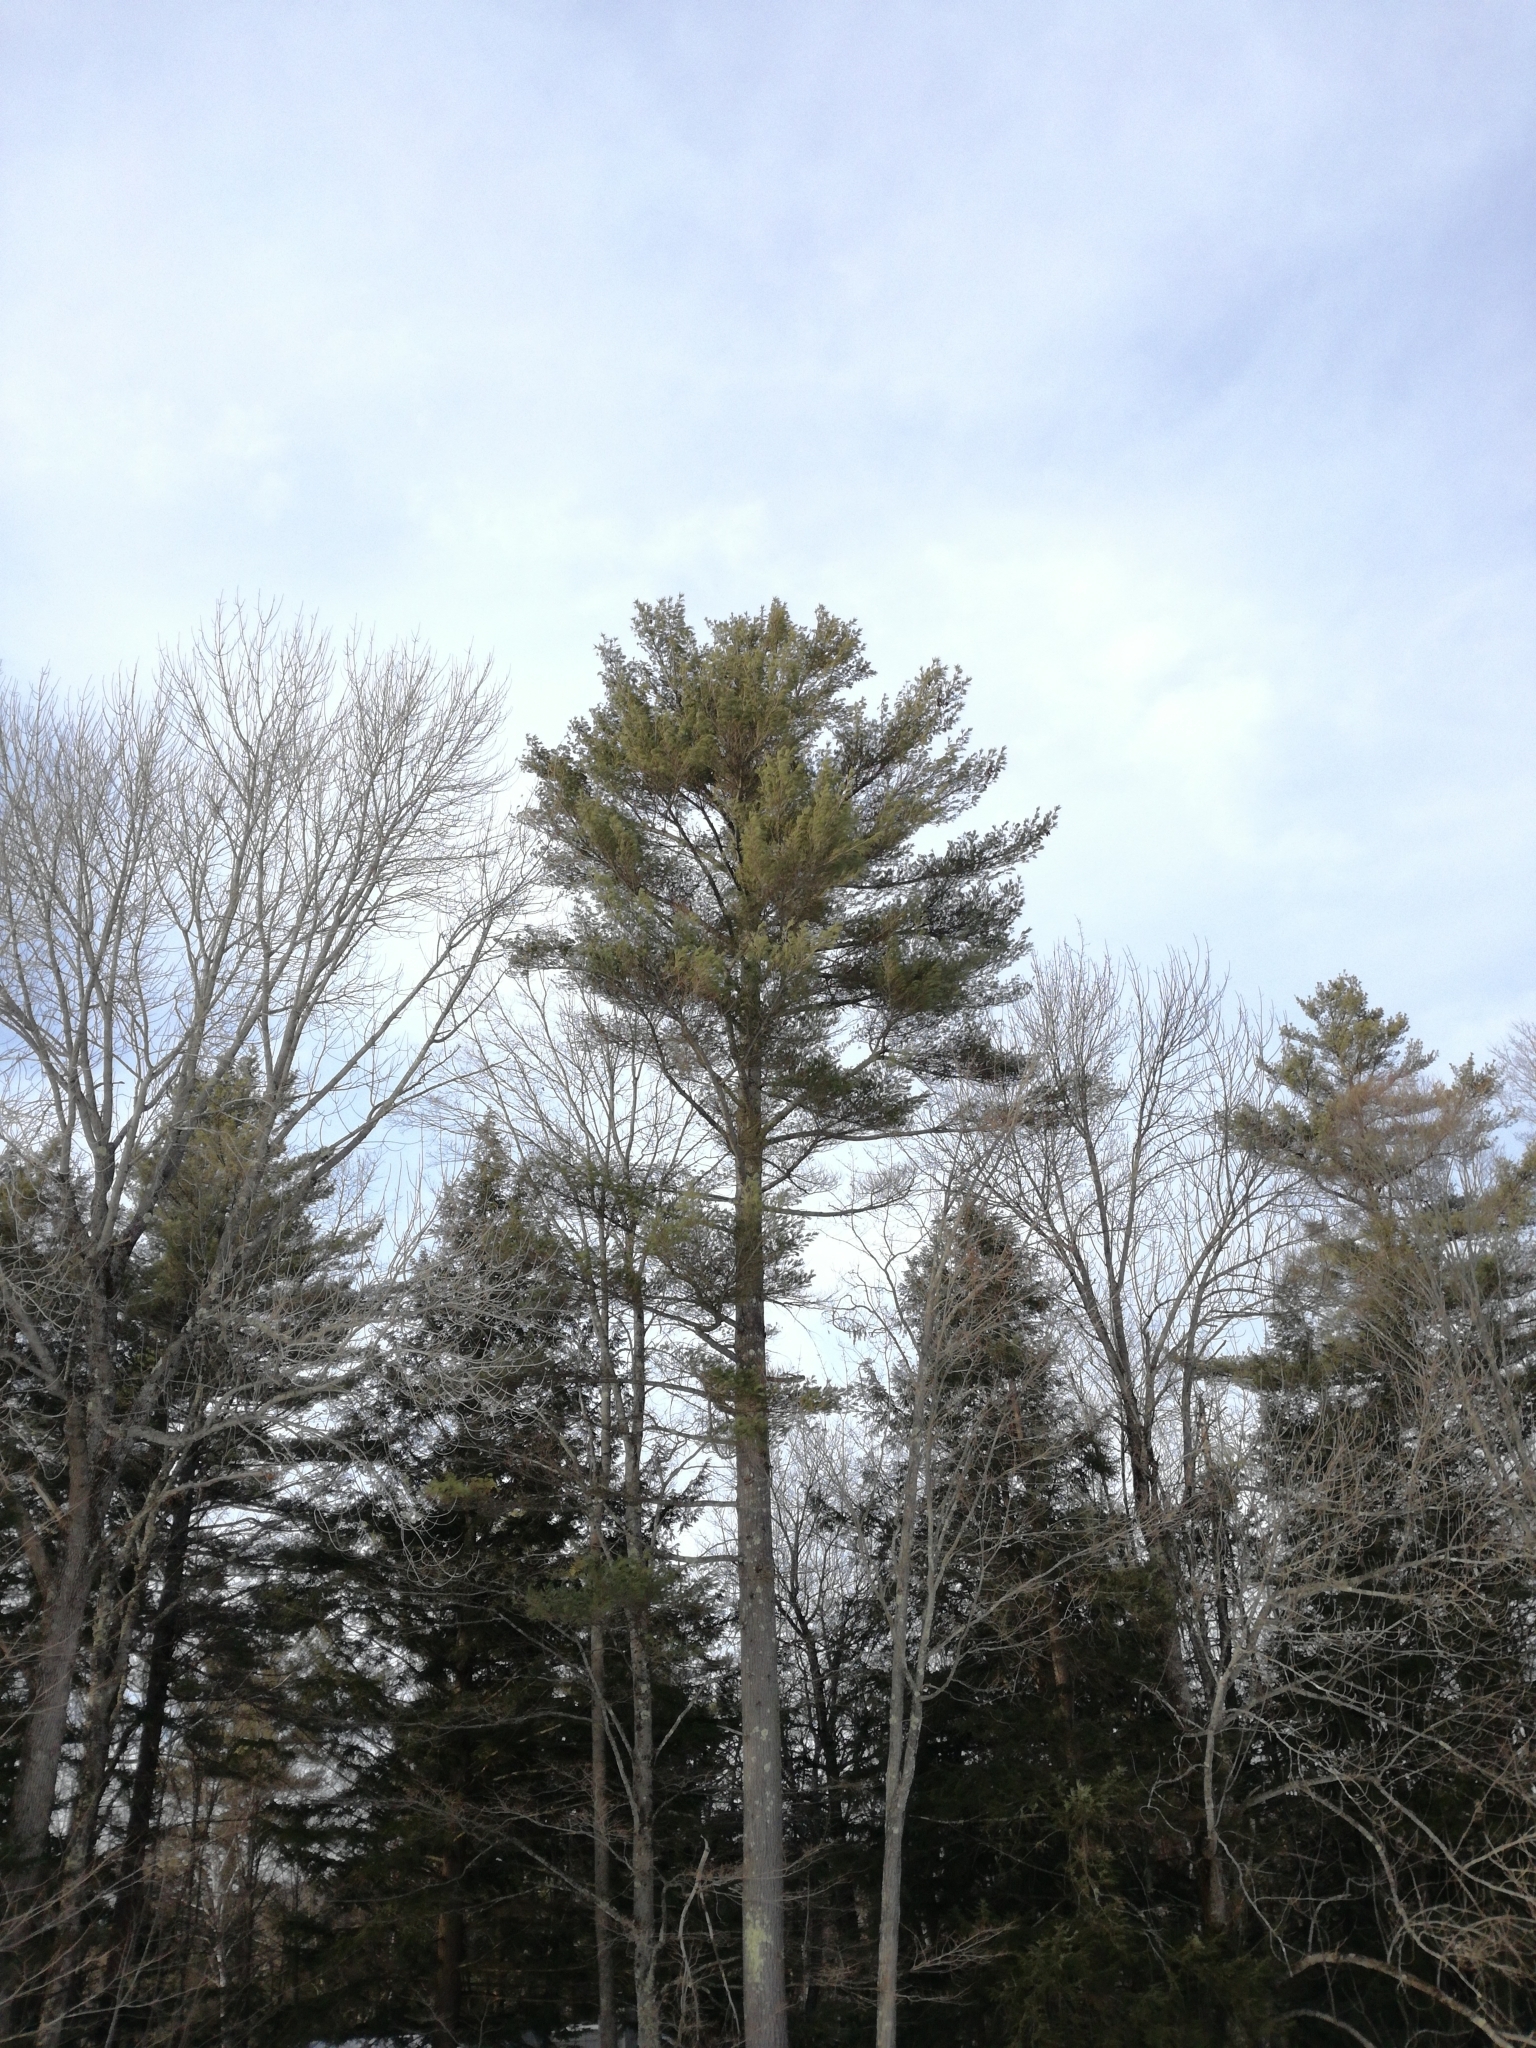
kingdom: Plantae
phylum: Tracheophyta
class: Pinopsida
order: Pinales
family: Pinaceae
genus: Pinus
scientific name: Pinus strobus
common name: Weymouth pine
